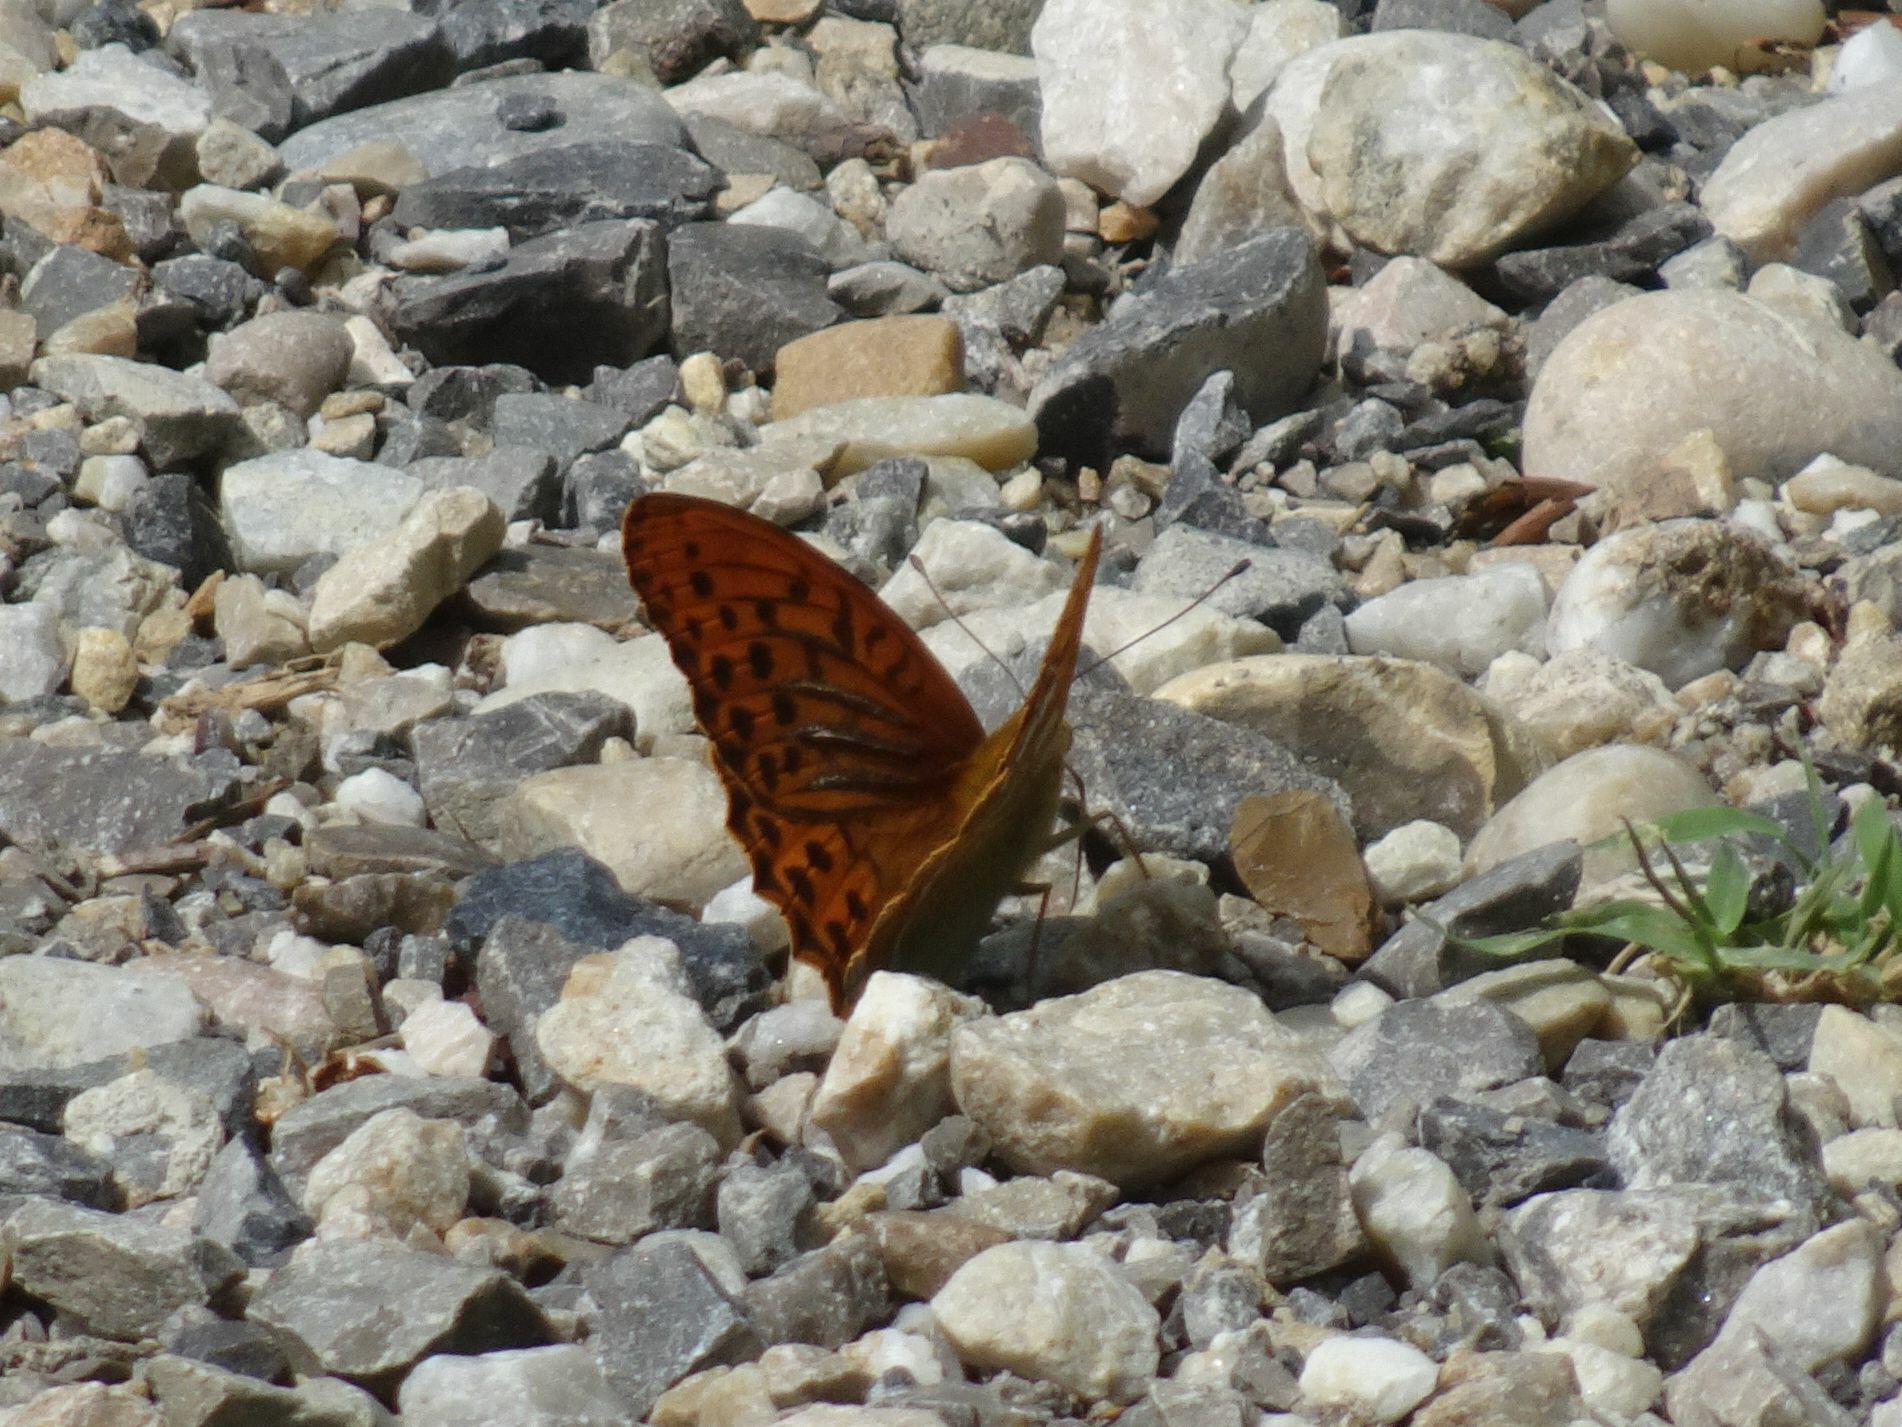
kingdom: Animalia
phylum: Arthropoda
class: Insecta
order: Lepidoptera
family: Nymphalidae
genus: Argynnis
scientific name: Argynnis paphia
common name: Silver-washed fritillary
